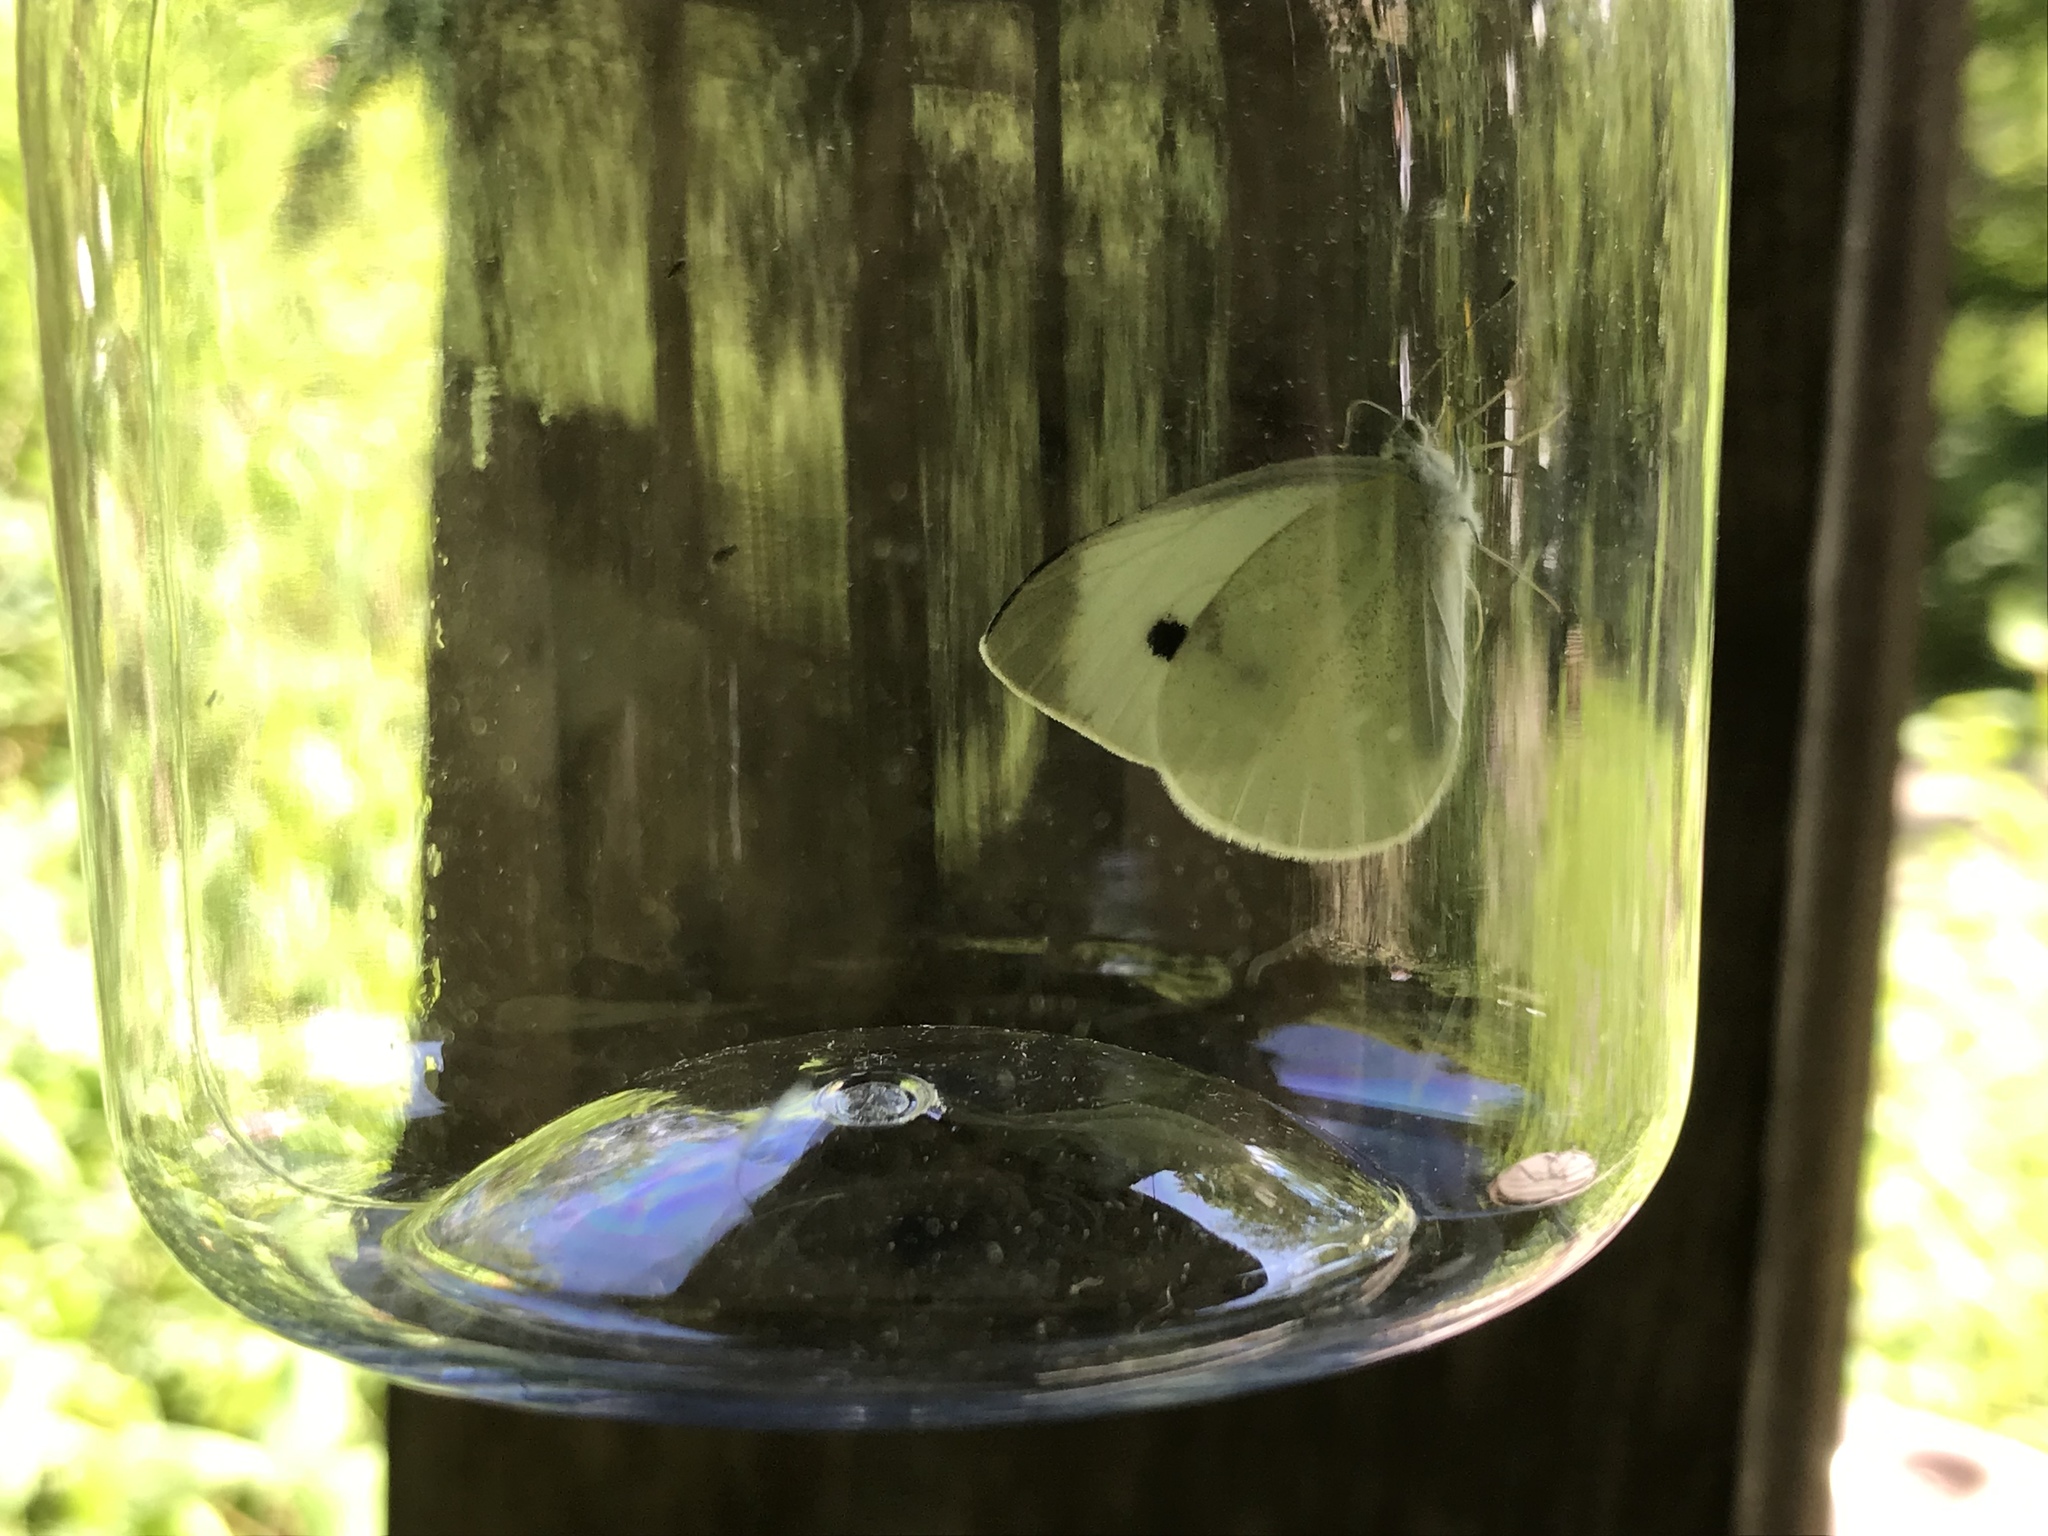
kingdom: Animalia
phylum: Arthropoda
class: Insecta
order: Lepidoptera
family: Pieridae
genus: Pieris
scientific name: Pieris rapae
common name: Small white
